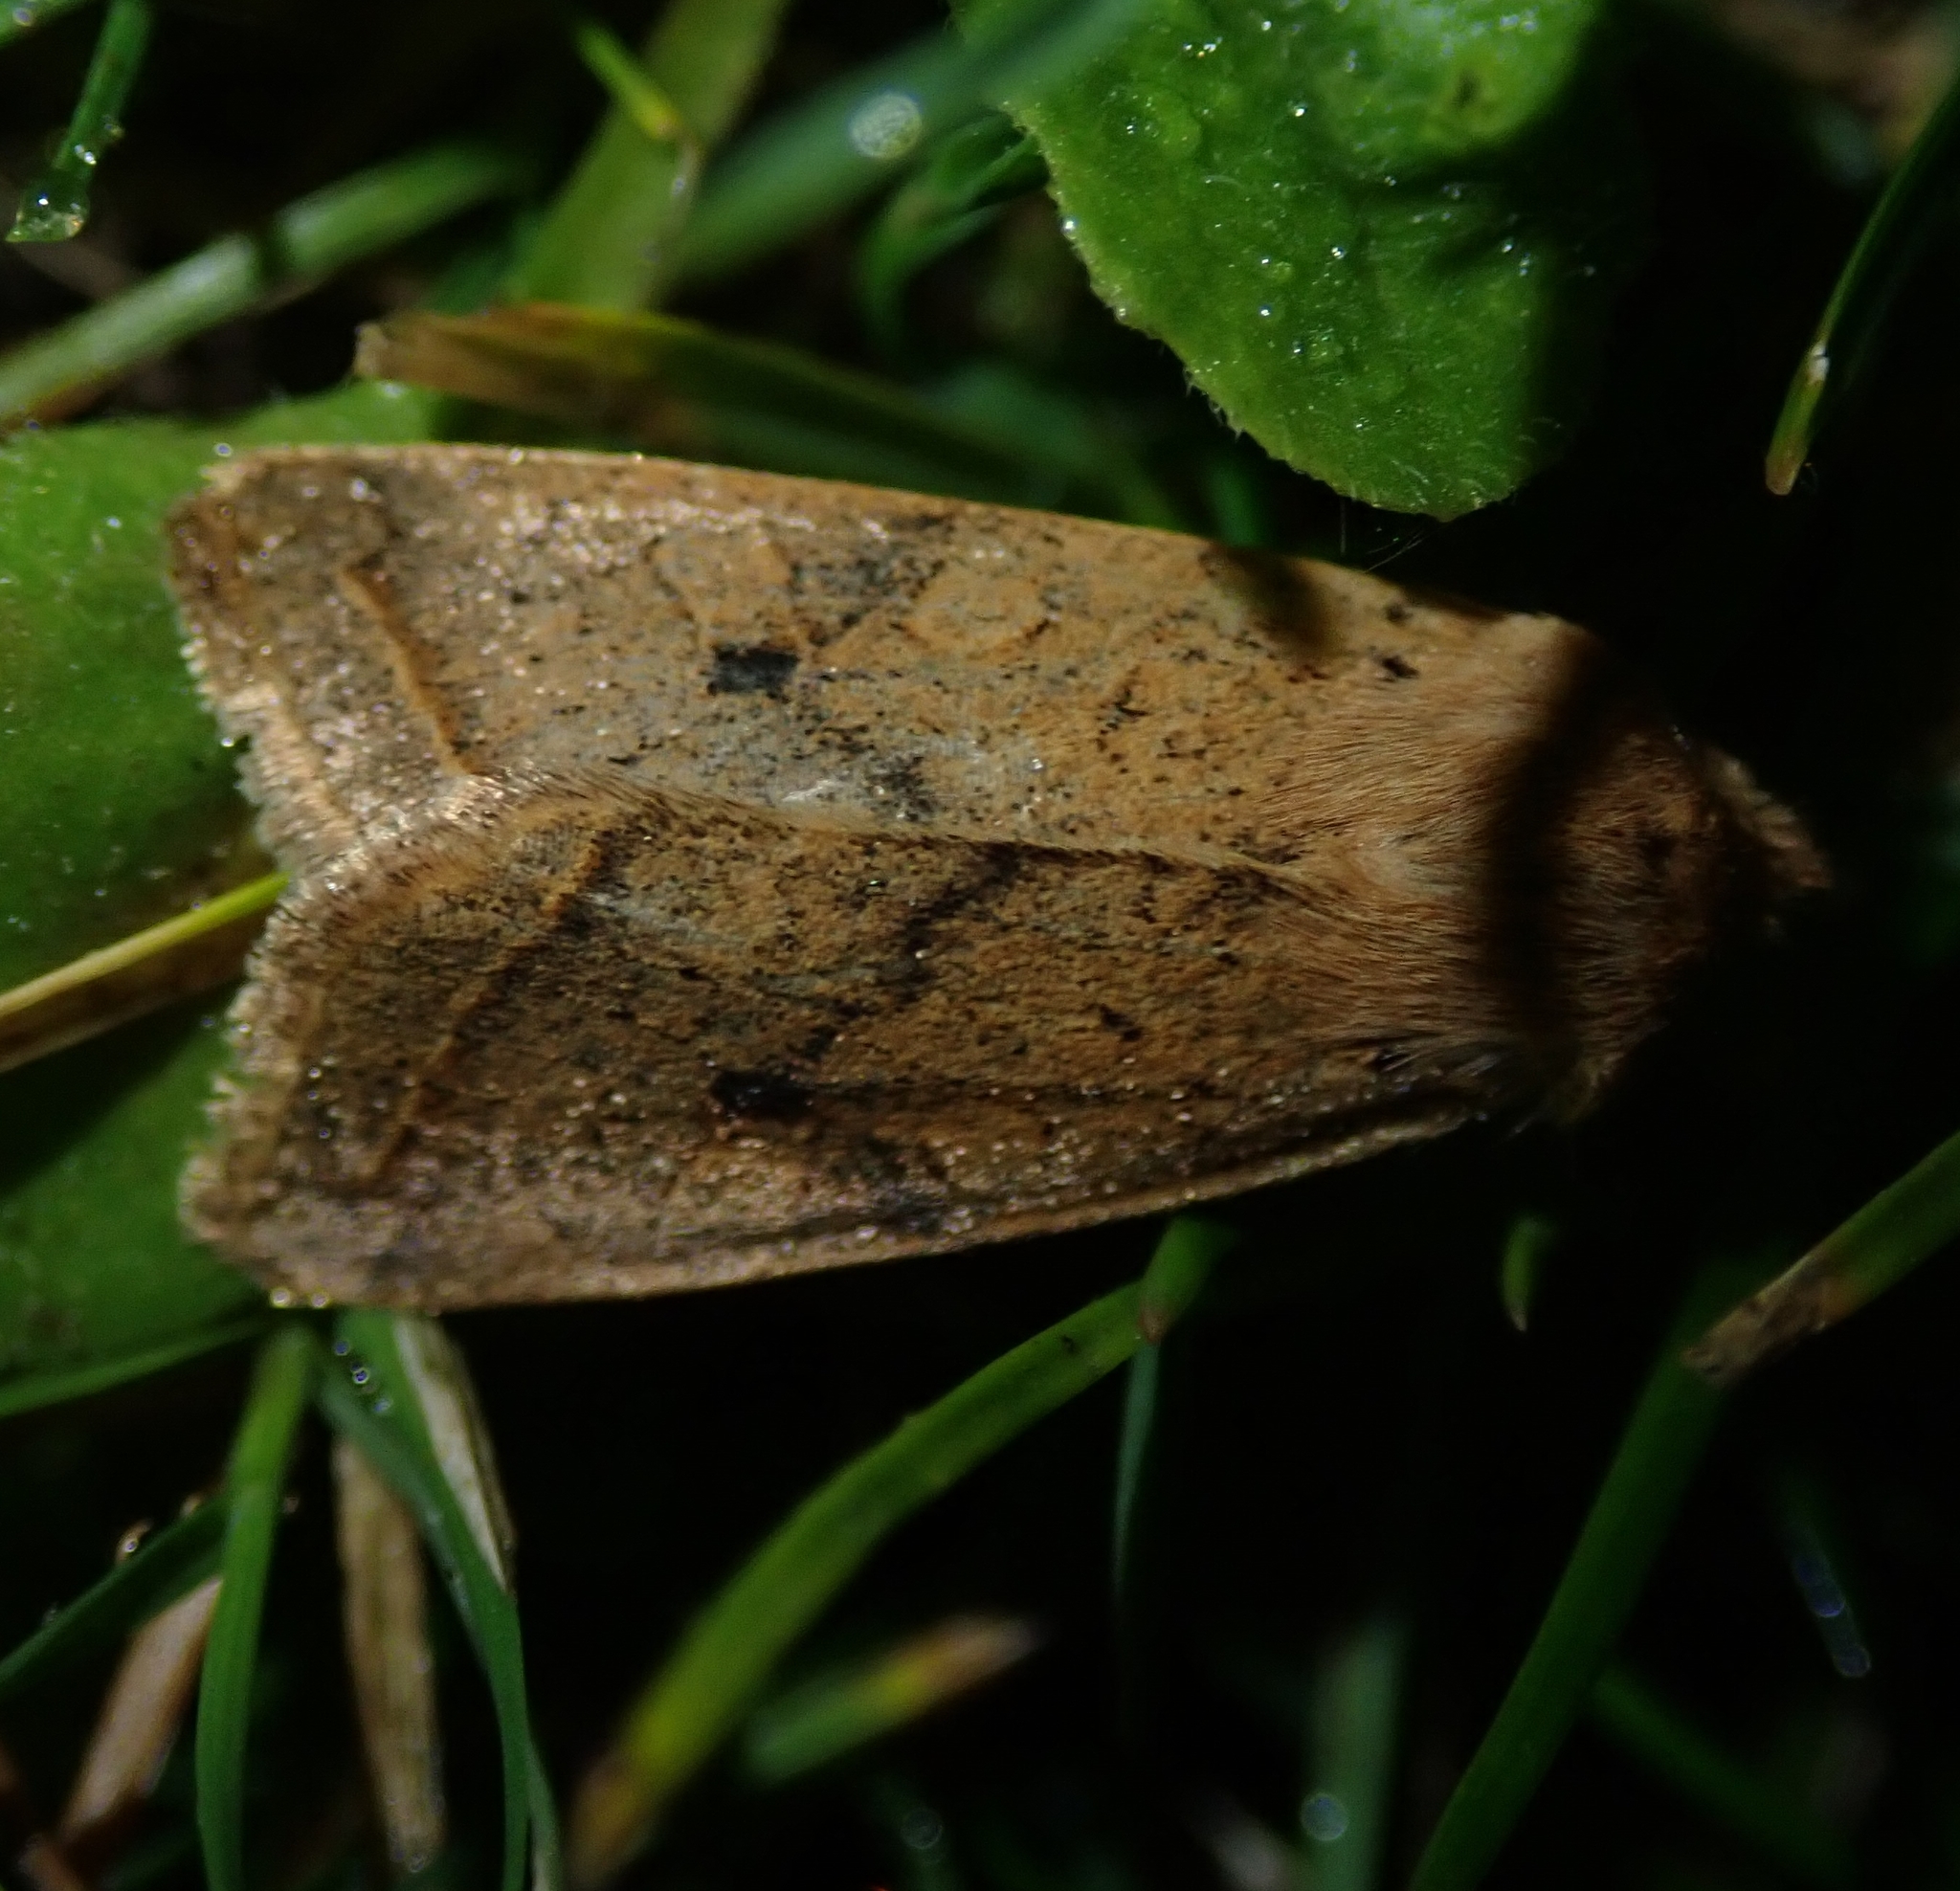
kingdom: Animalia
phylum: Arthropoda
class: Insecta
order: Lepidoptera
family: Noctuidae
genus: Agrochola
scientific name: Agrochola macilenta
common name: Yellow-line quaker
